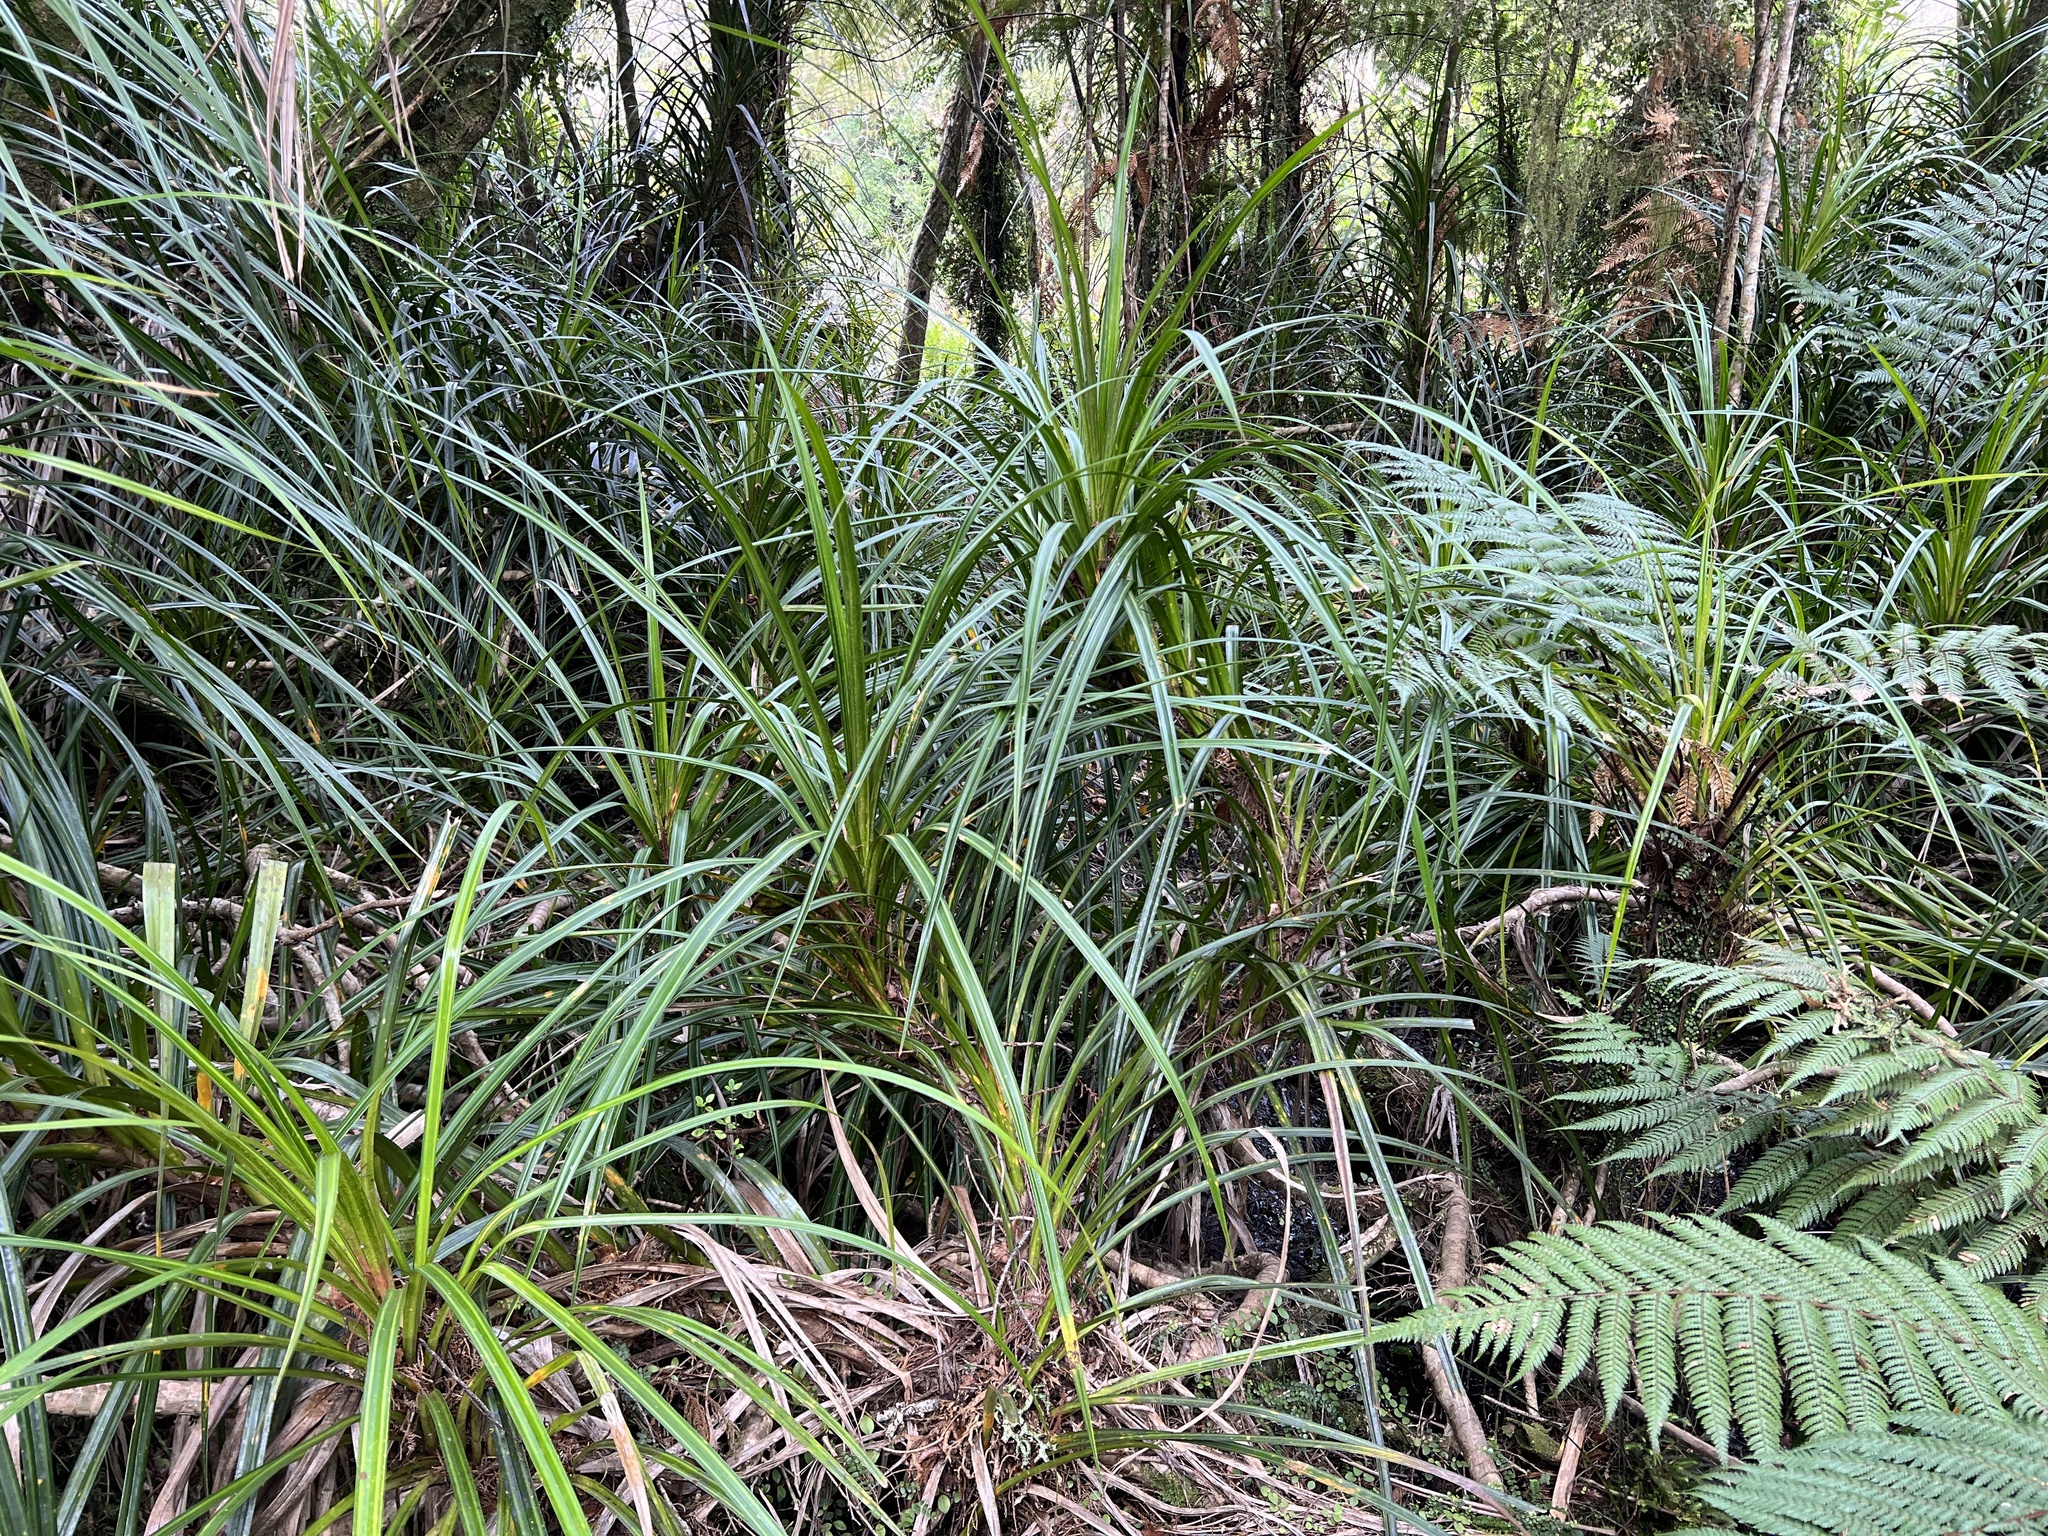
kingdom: Plantae
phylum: Tracheophyta
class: Liliopsida
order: Pandanales
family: Pandanaceae
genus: Freycinetia
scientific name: Freycinetia banksii
